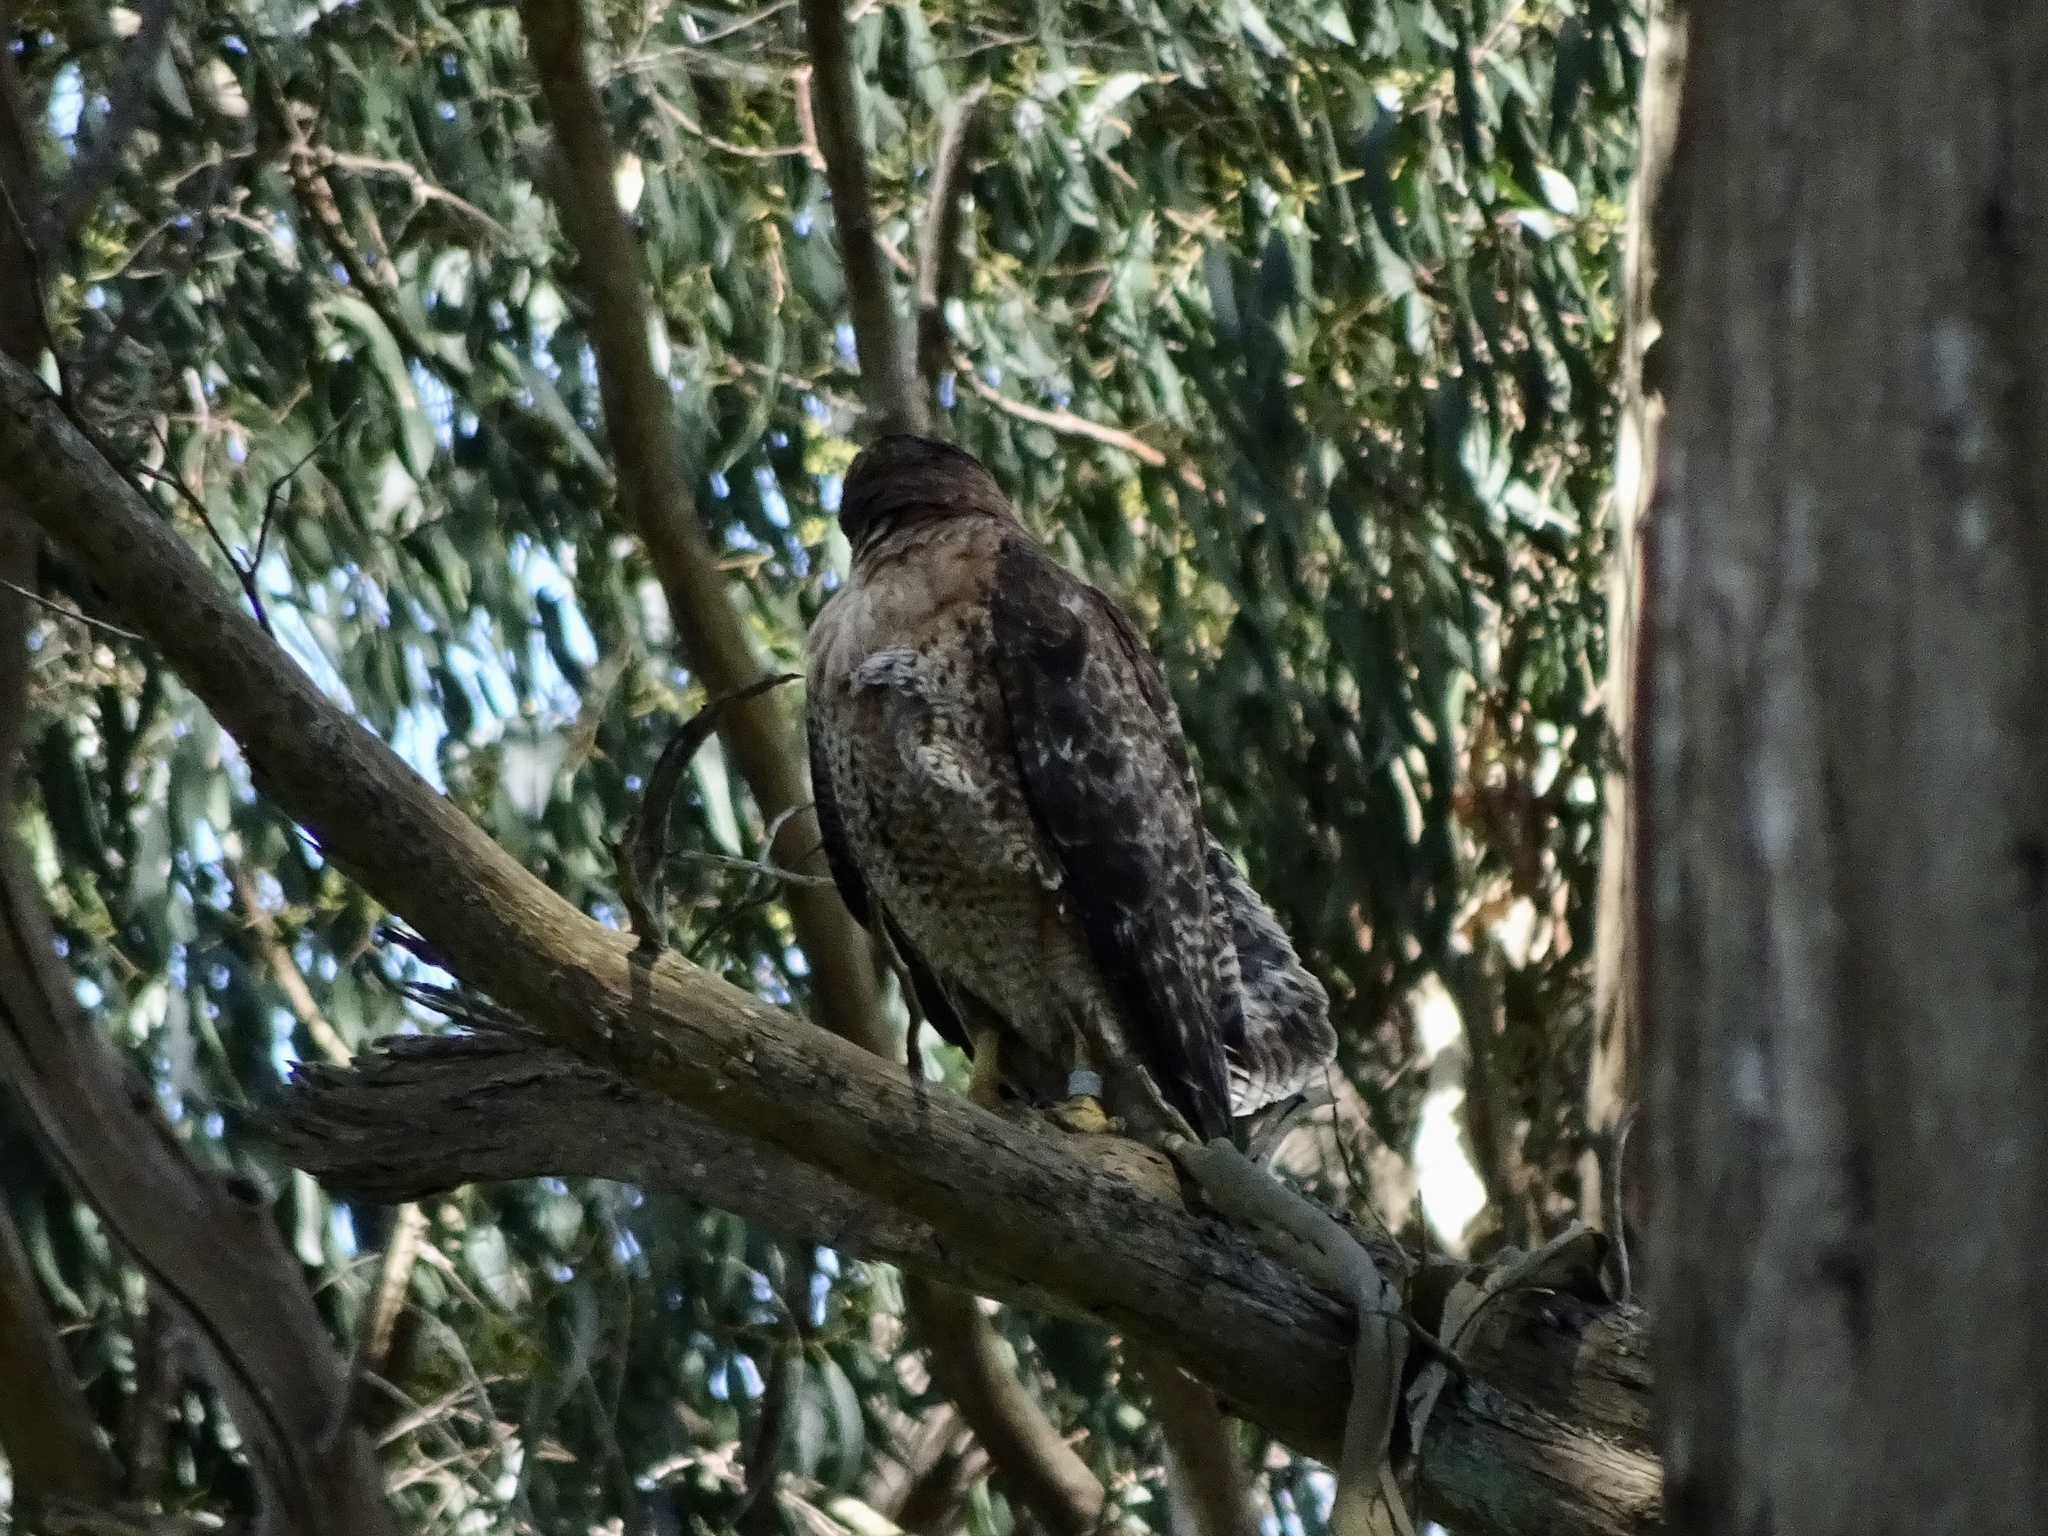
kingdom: Animalia
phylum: Chordata
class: Aves
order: Accipitriformes
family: Accipitridae
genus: Buteo
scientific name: Buteo jamaicensis
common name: Red-tailed hawk
